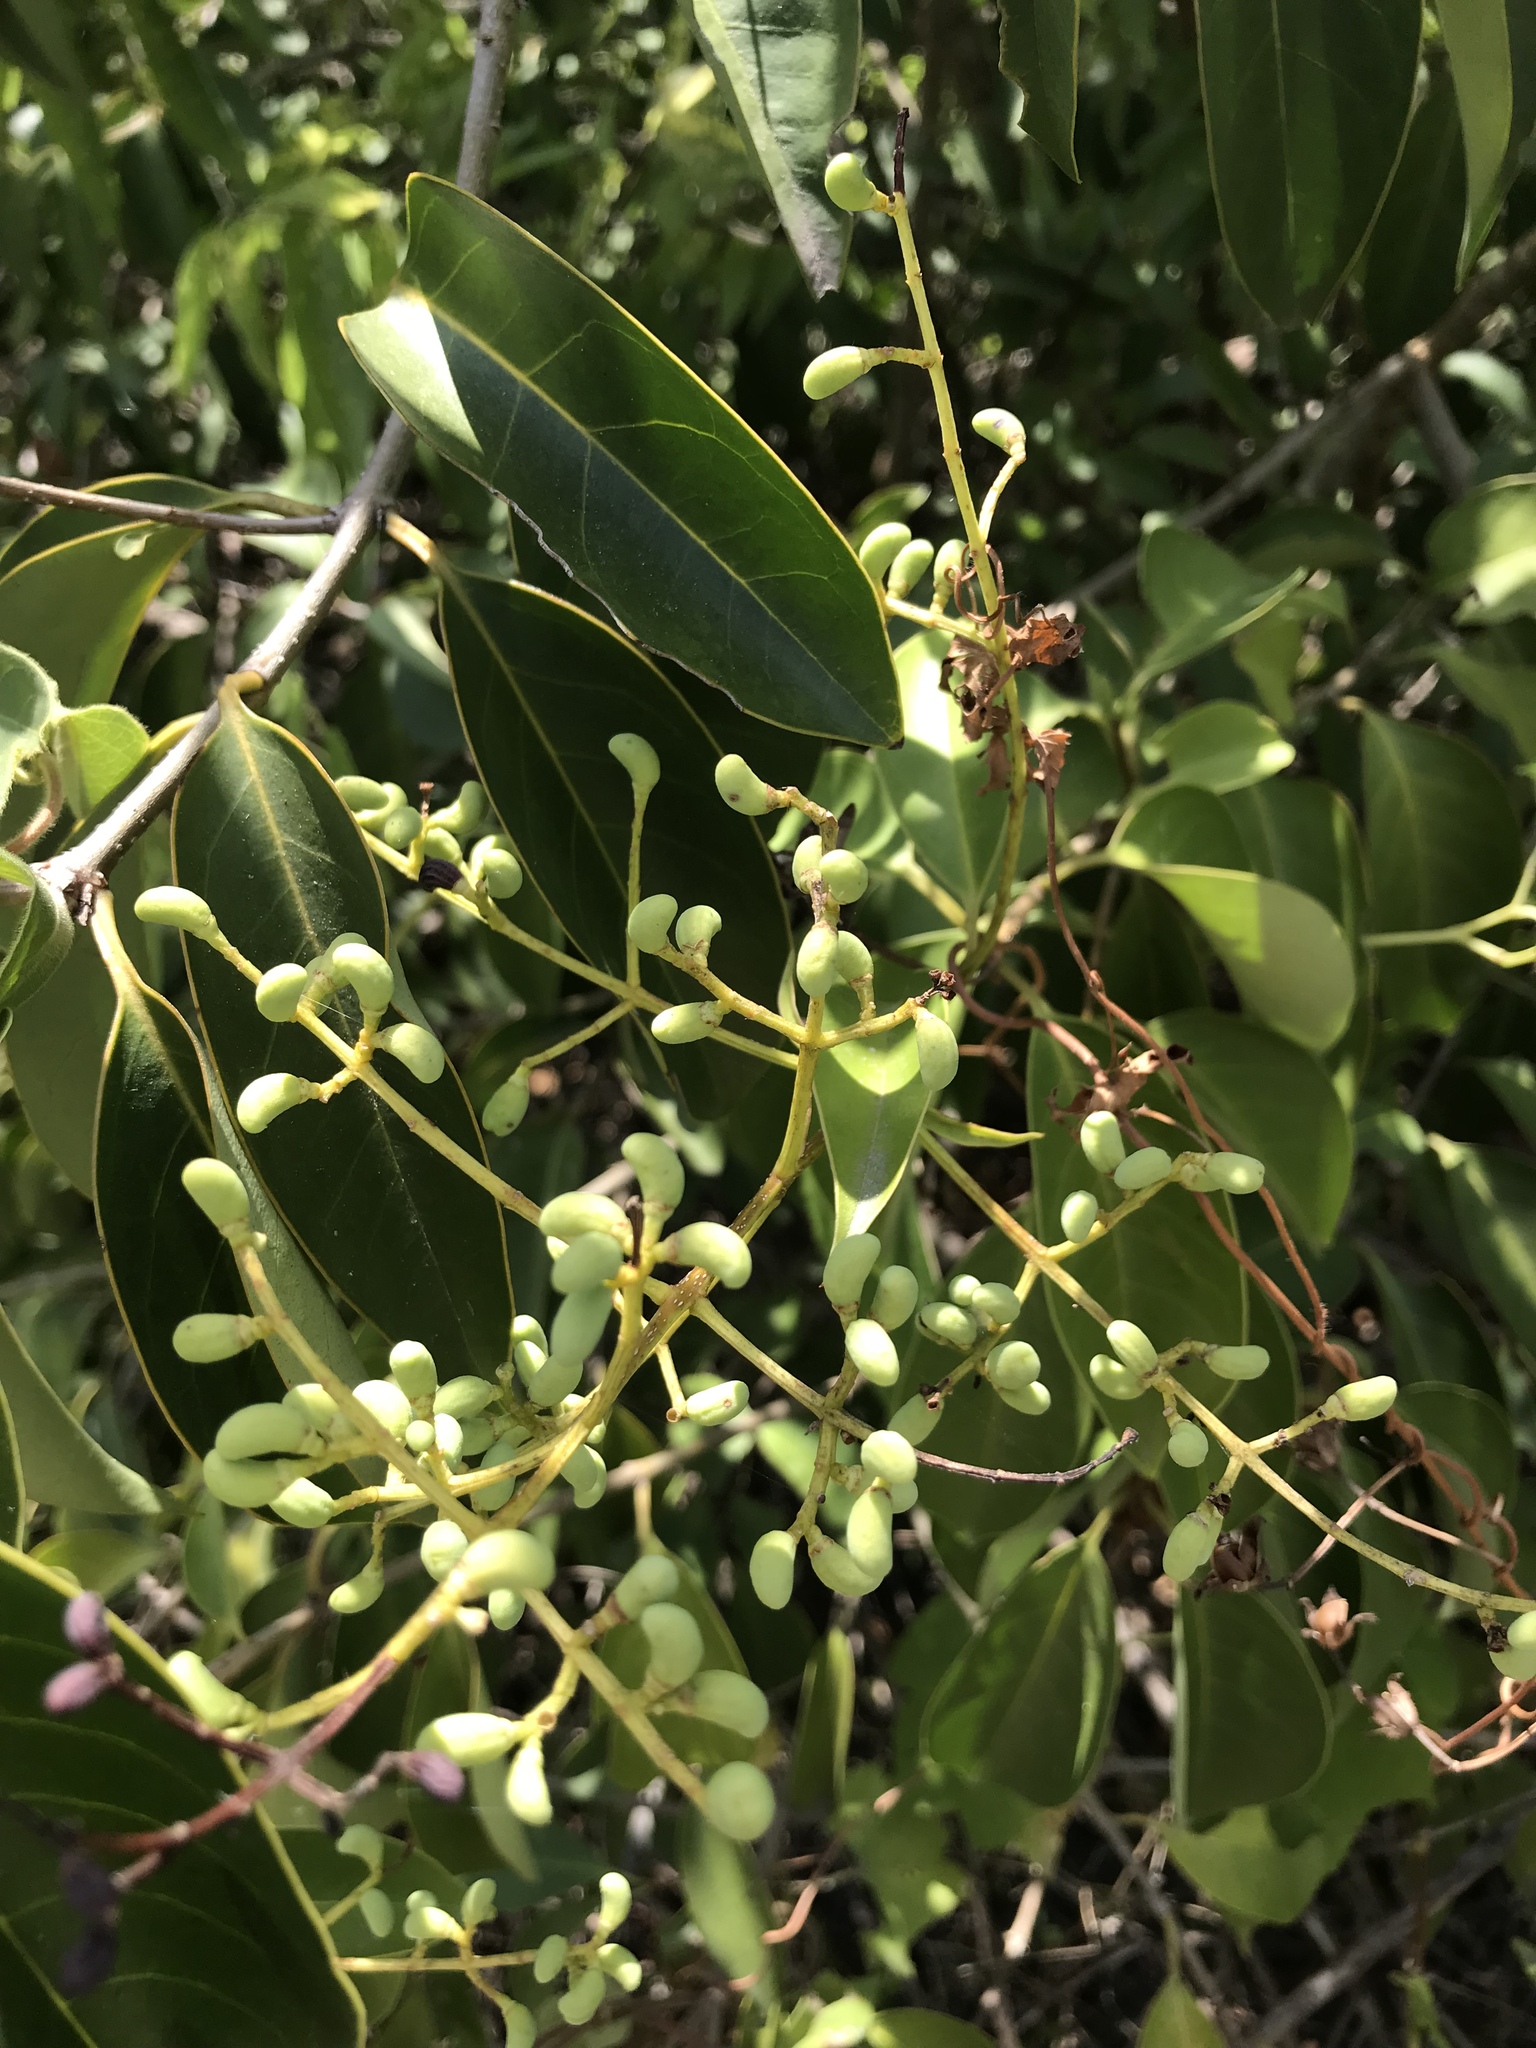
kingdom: Plantae
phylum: Tracheophyta
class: Magnoliopsida
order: Lamiales
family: Oleaceae
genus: Ligustrum
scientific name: Ligustrum lucidum
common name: Glossy privet
